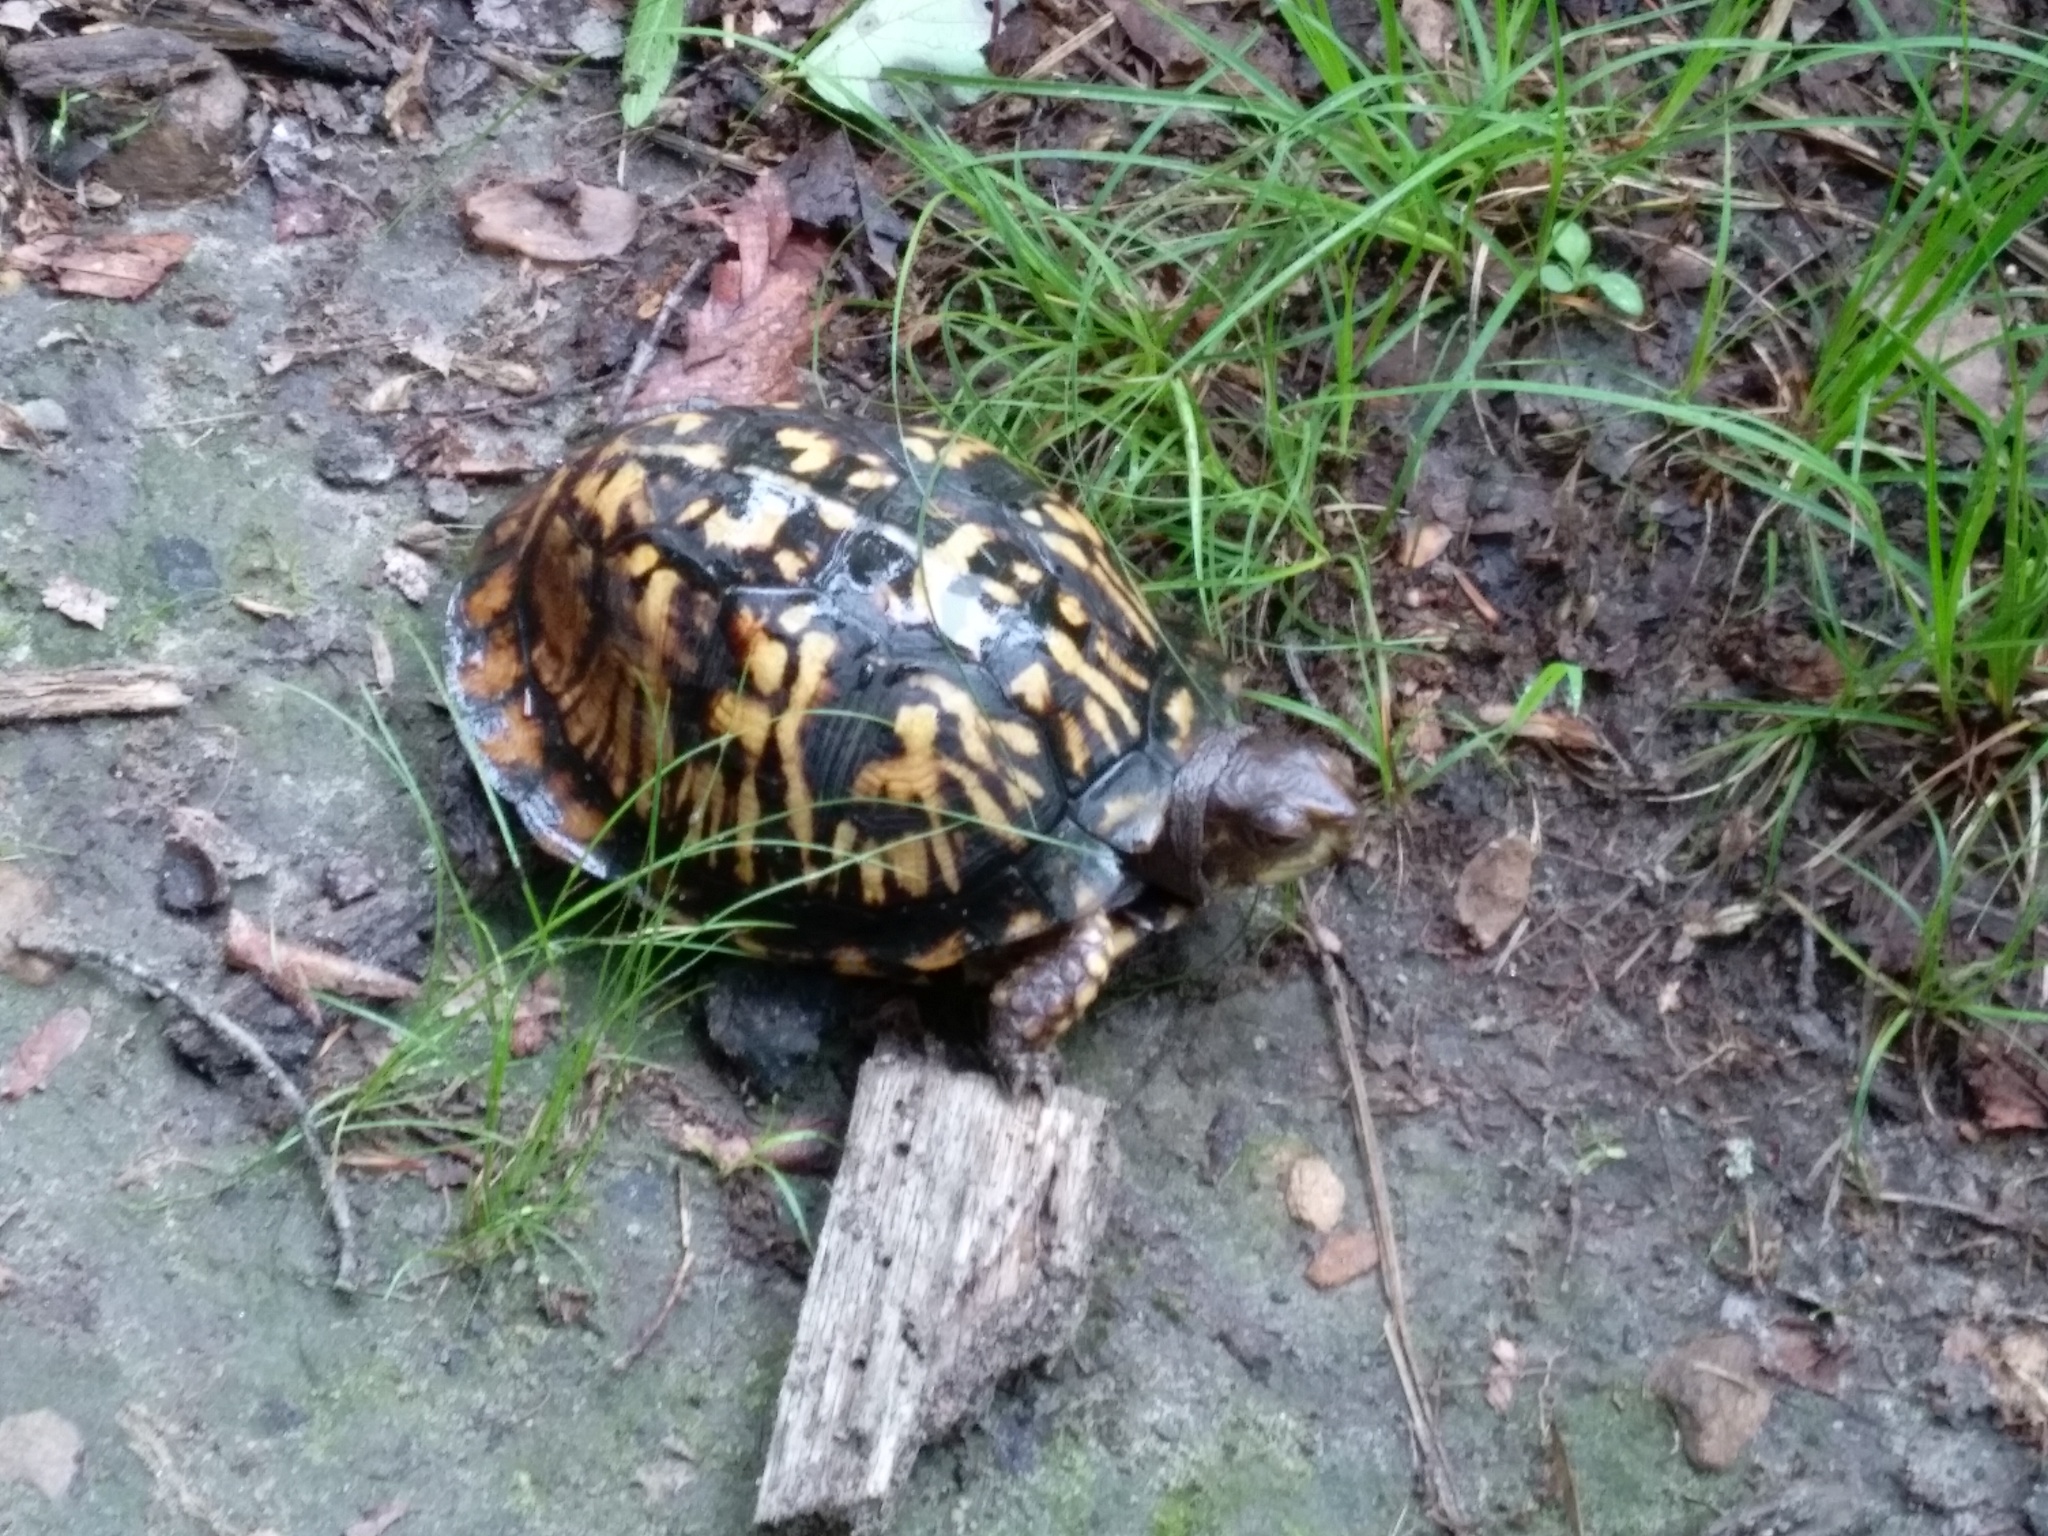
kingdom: Animalia
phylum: Chordata
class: Testudines
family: Emydidae
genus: Terrapene
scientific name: Terrapene carolina
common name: Common box turtle
